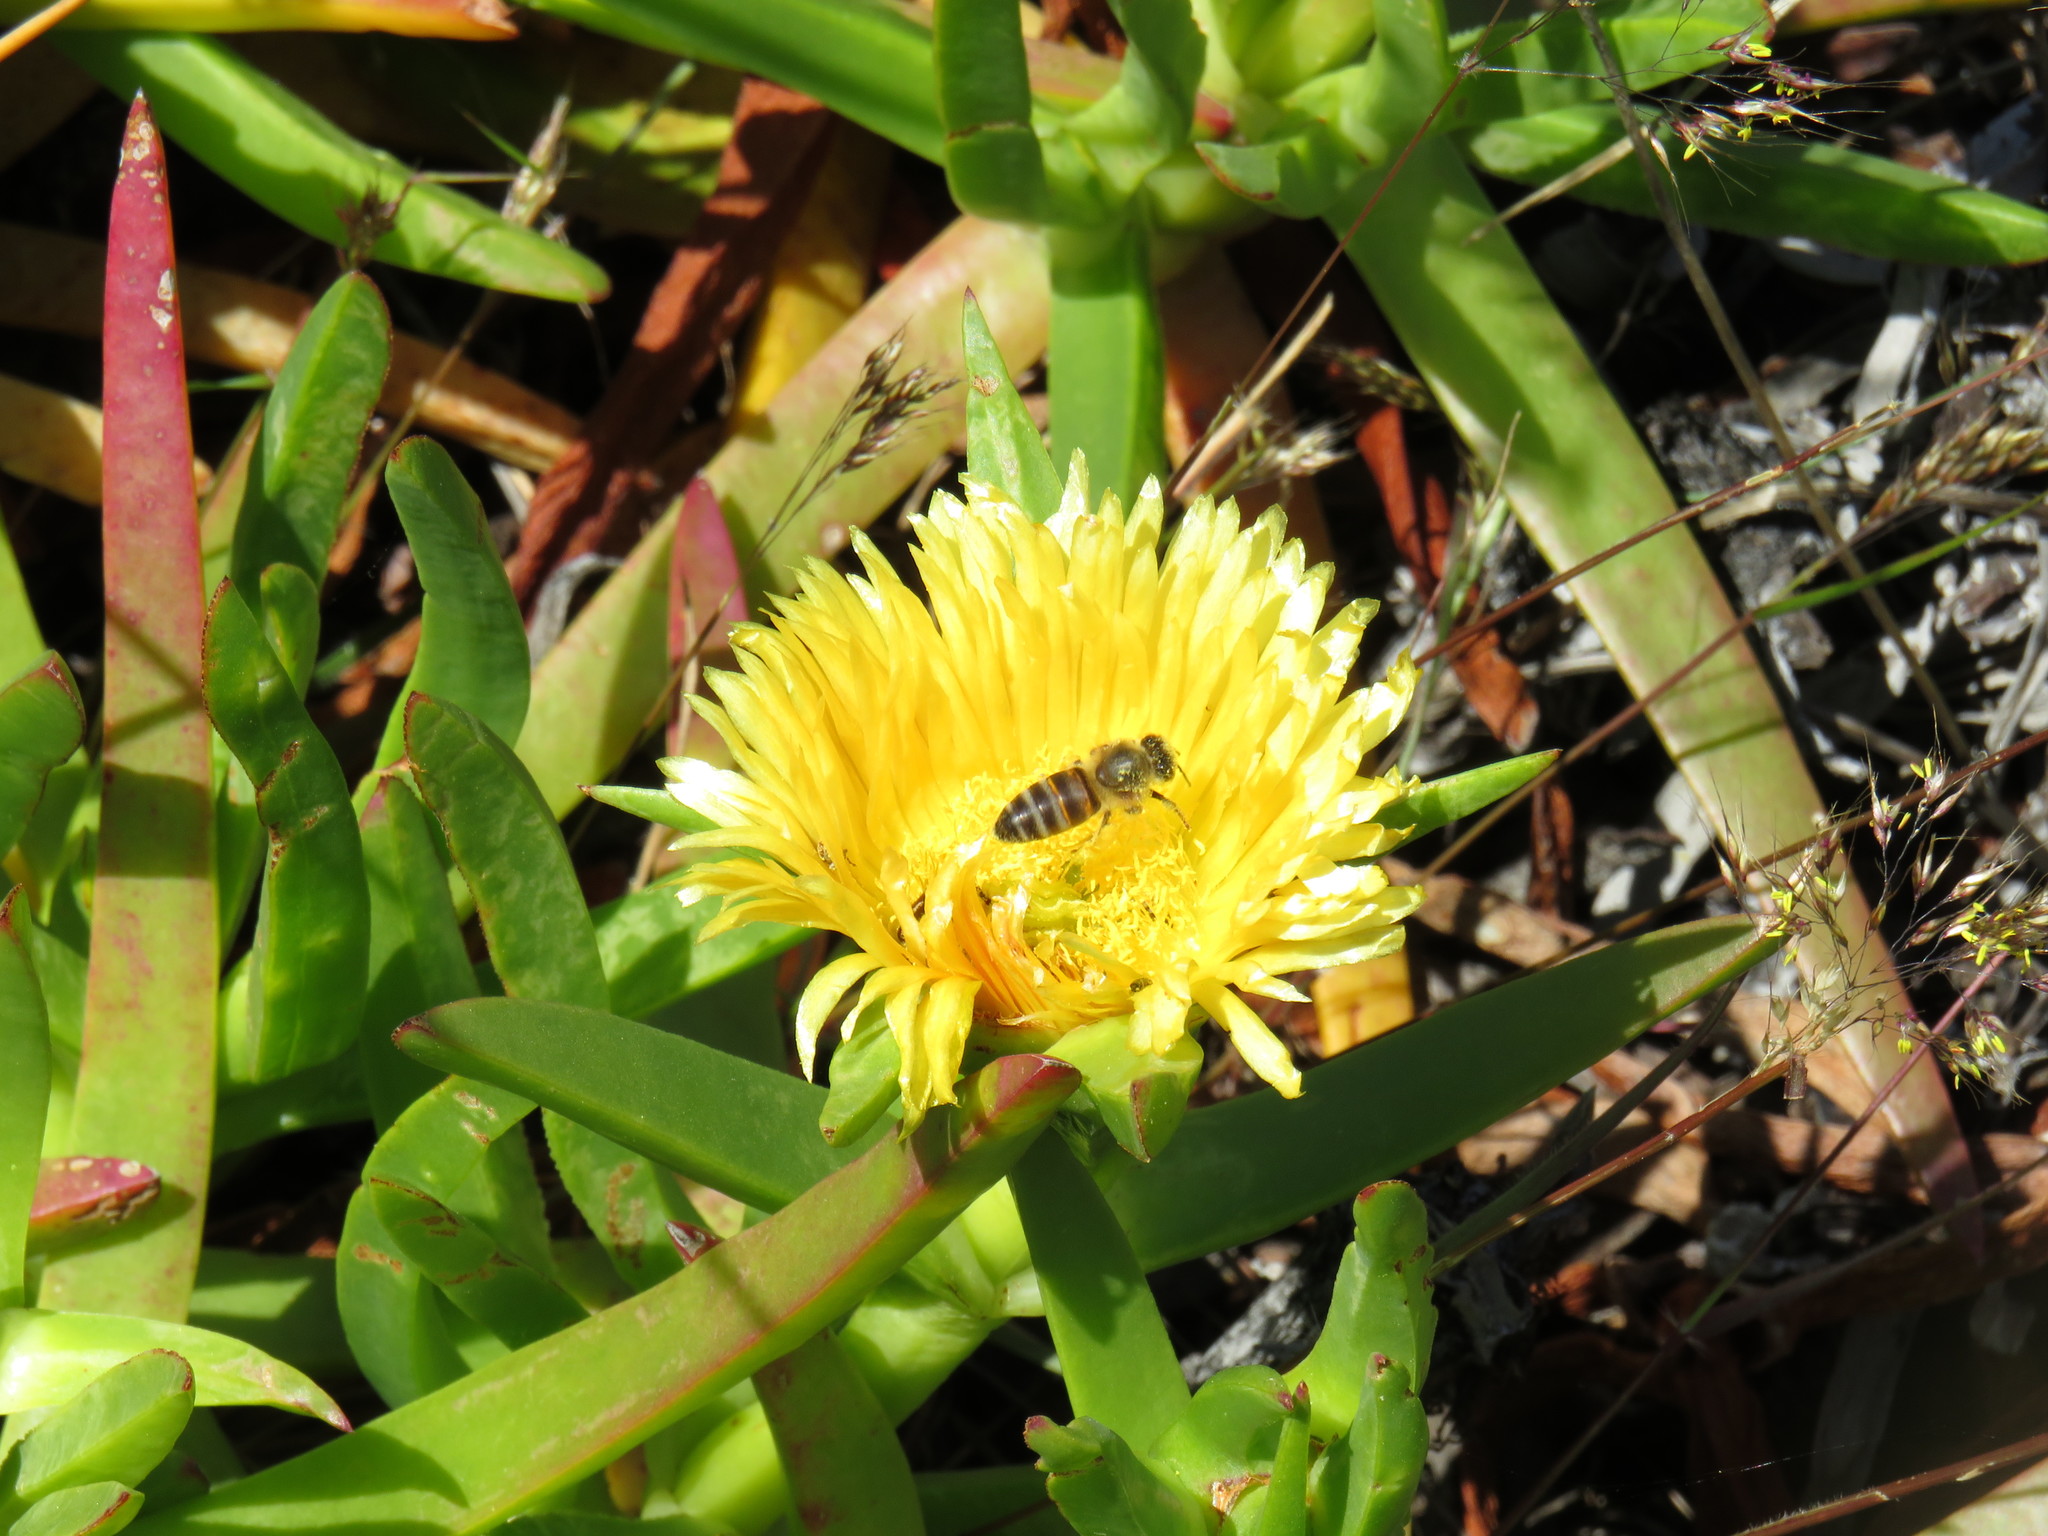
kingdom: Animalia
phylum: Arthropoda
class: Insecta
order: Hymenoptera
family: Apidae
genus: Apis
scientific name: Apis mellifera
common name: Honey bee
